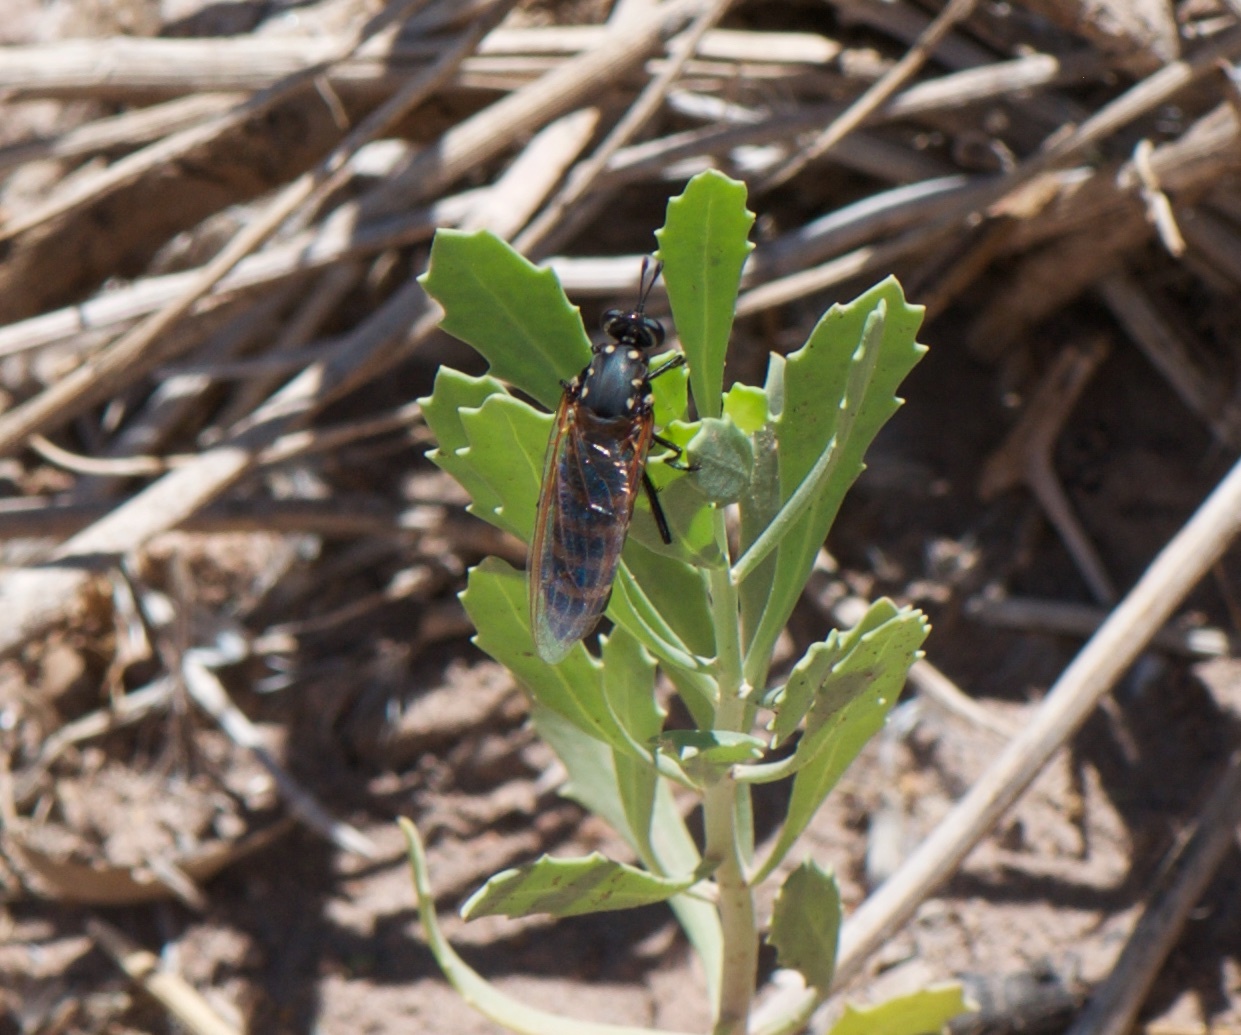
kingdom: Animalia
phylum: Arthropoda
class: Insecta
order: Diptera
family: Mydidae
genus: Plyomydas
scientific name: Plyomydas adelphe
